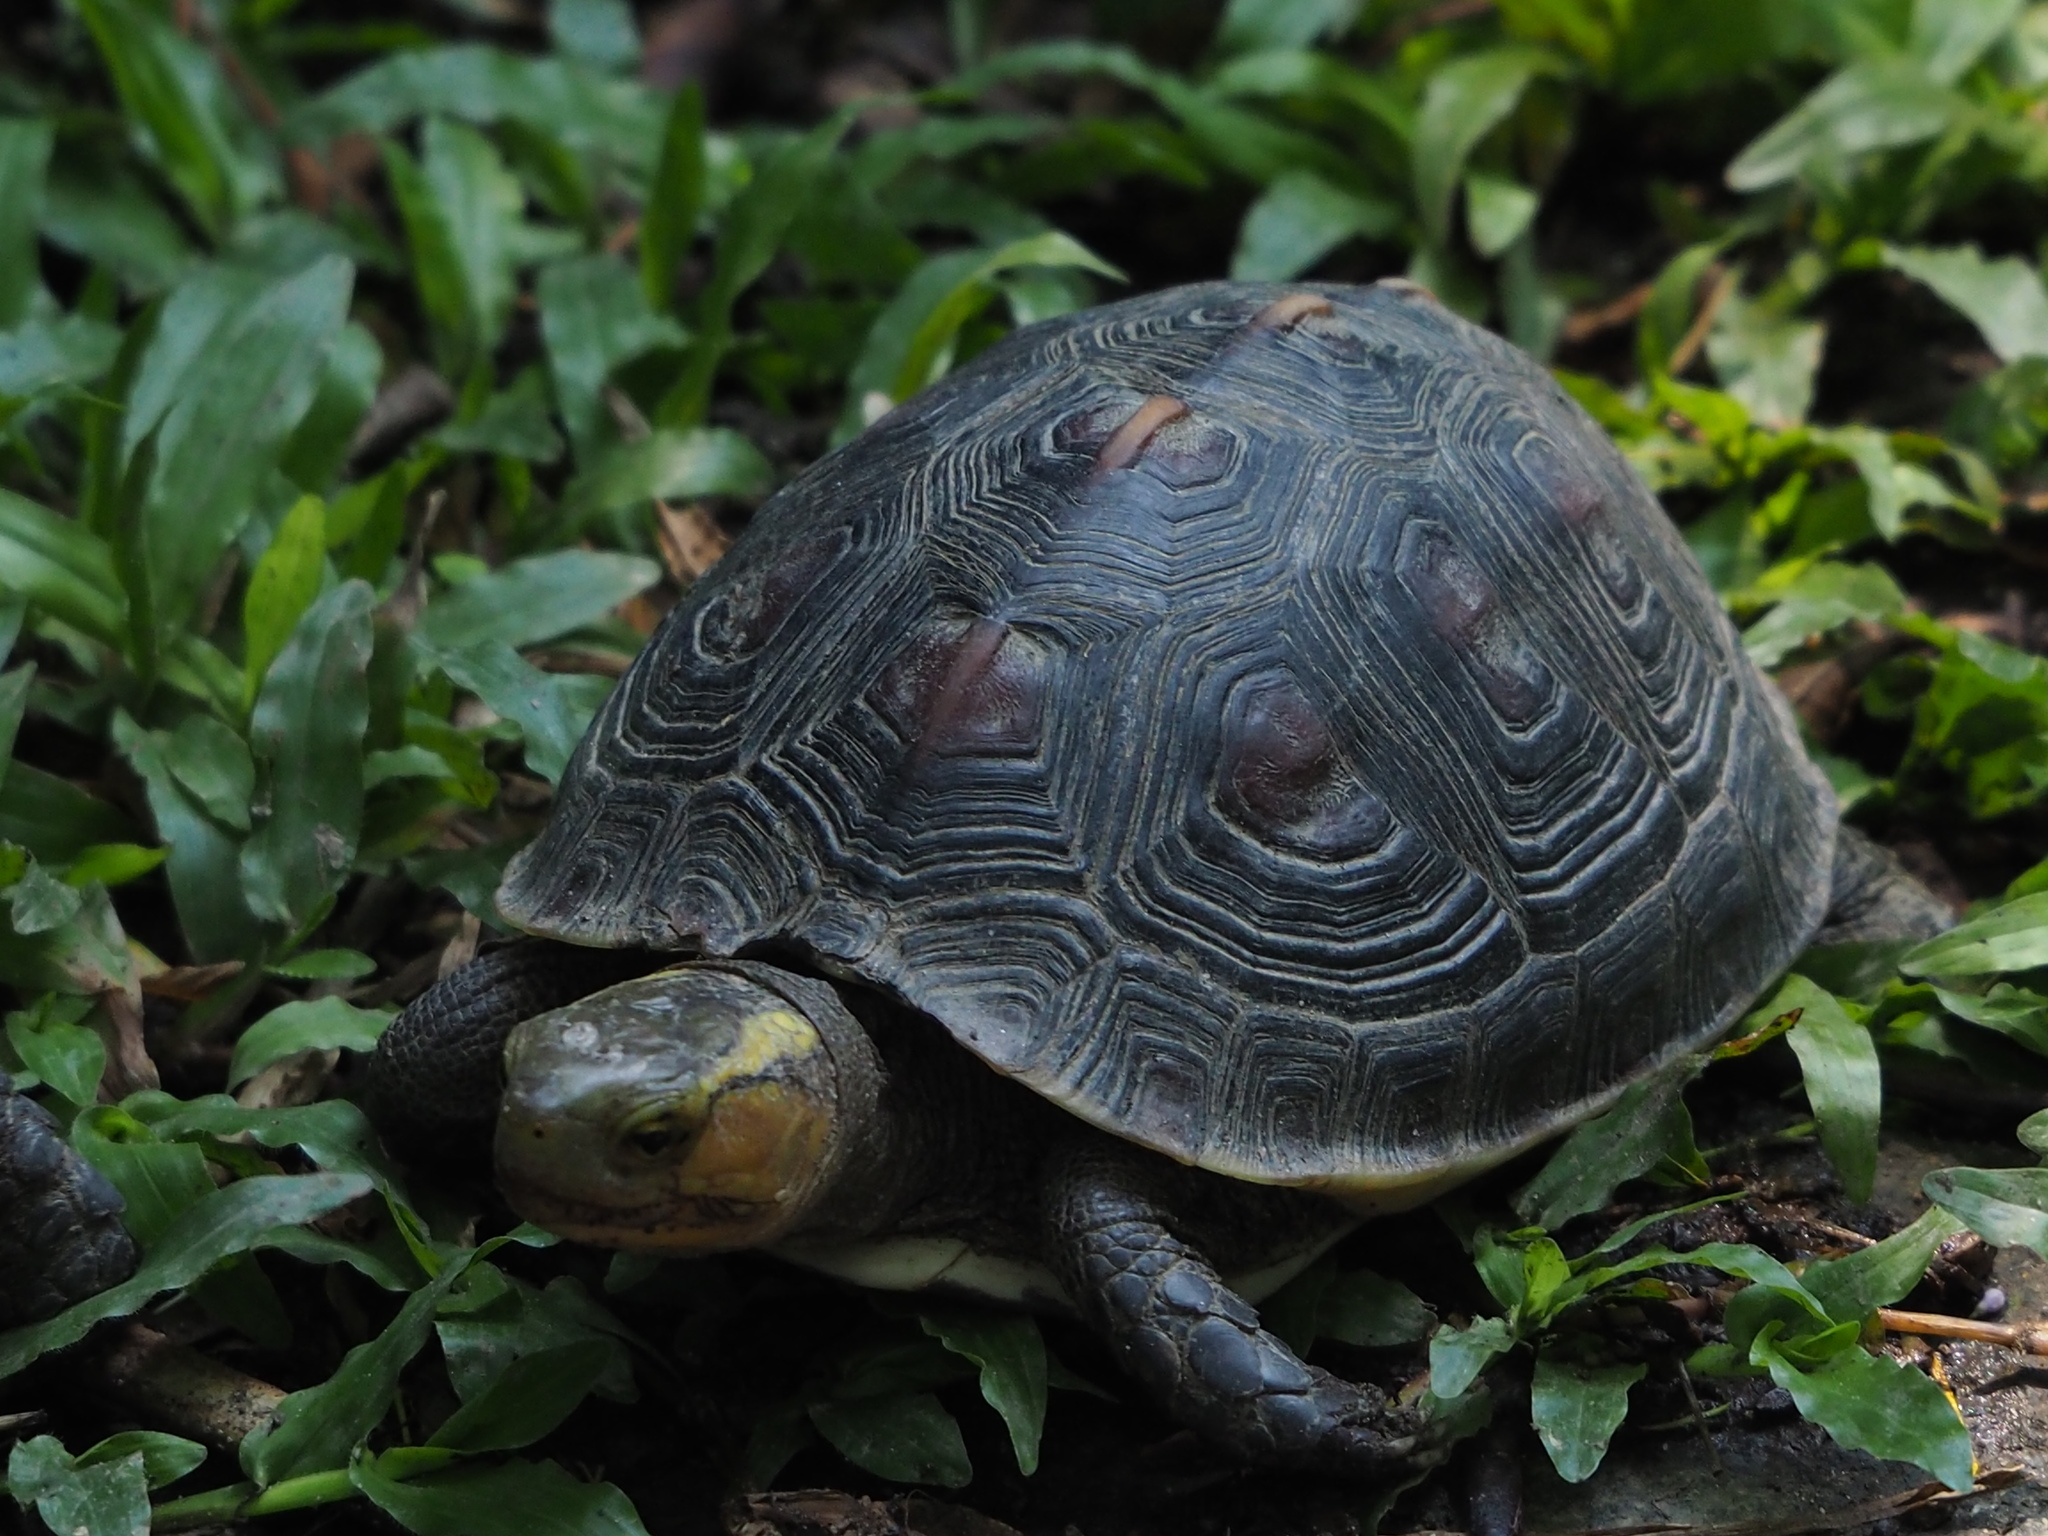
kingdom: Animalia
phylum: Chordata
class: Testudines
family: Geoemydidae
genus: Cuora
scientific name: Cuora flavomarginata
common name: Yellow-margined box turtle
